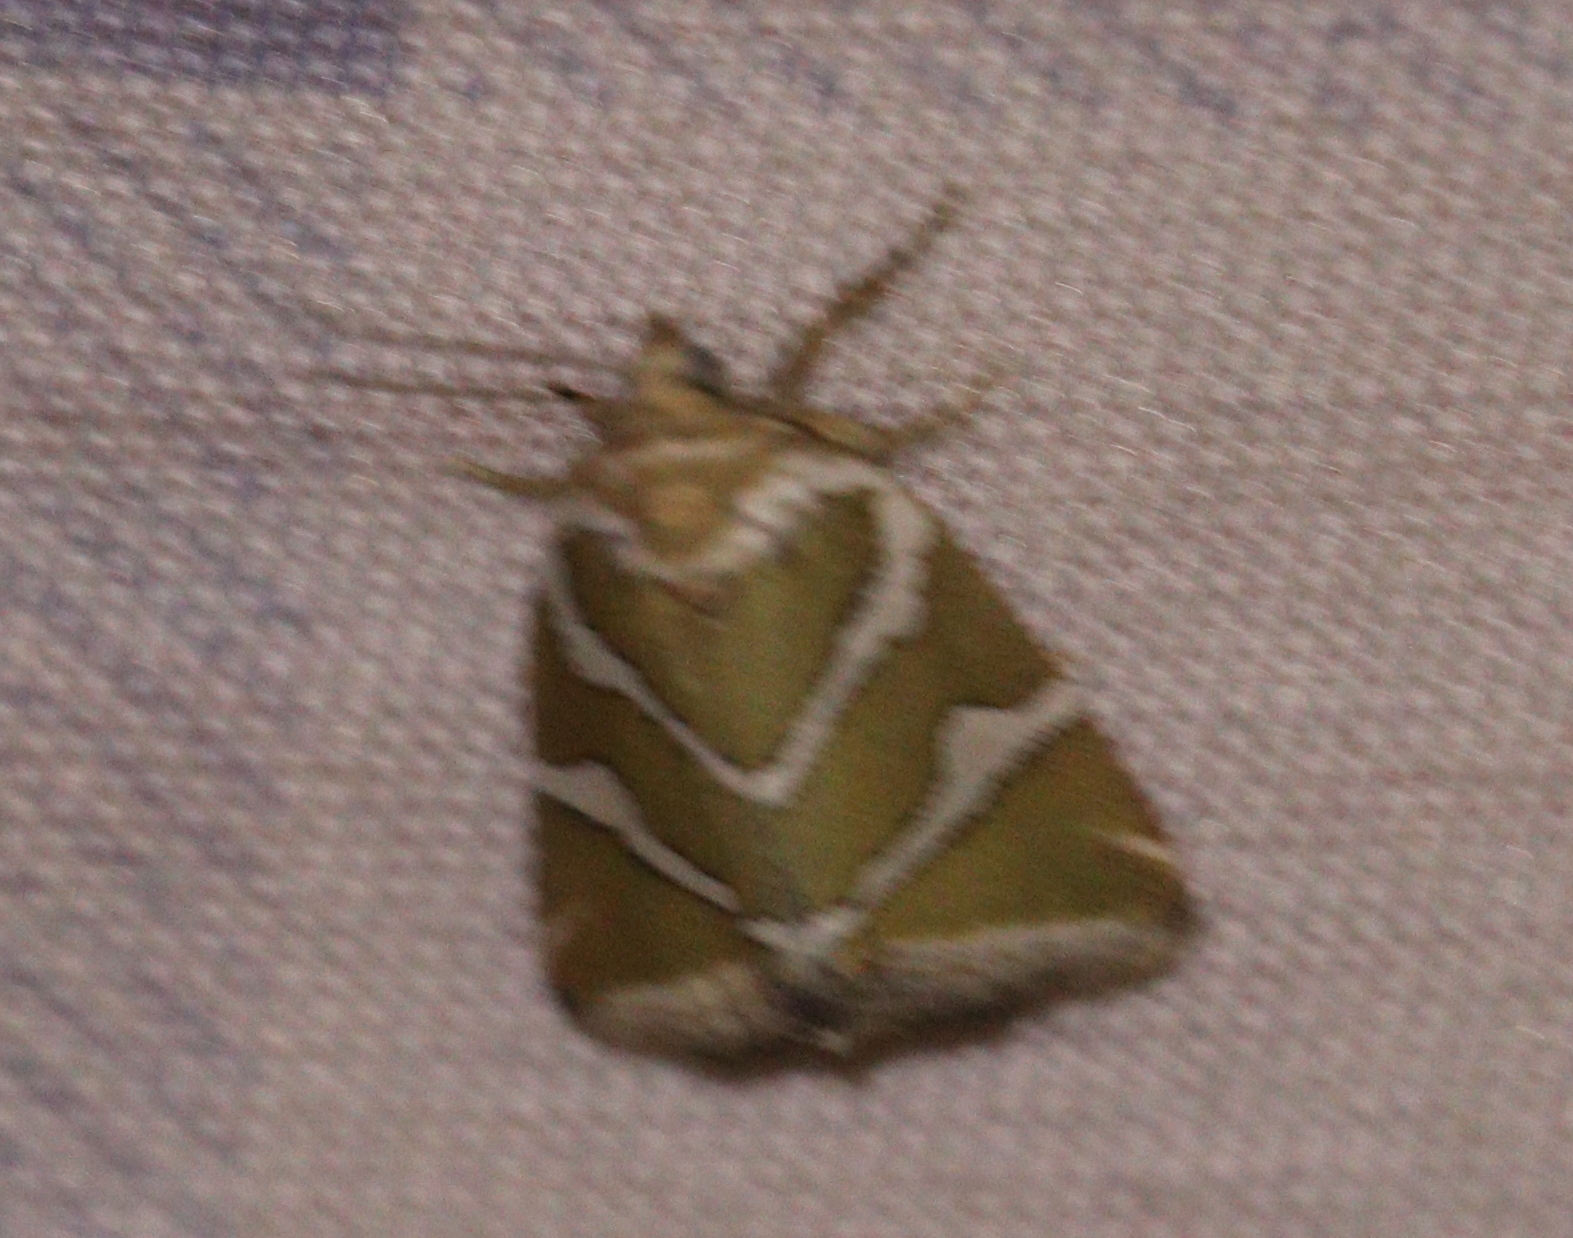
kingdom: Animalia
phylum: Arthropoda
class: Insecta
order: Lepidoptera
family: Noctuidae
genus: Deltote
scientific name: Deltote bankiana
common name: Silver barred
